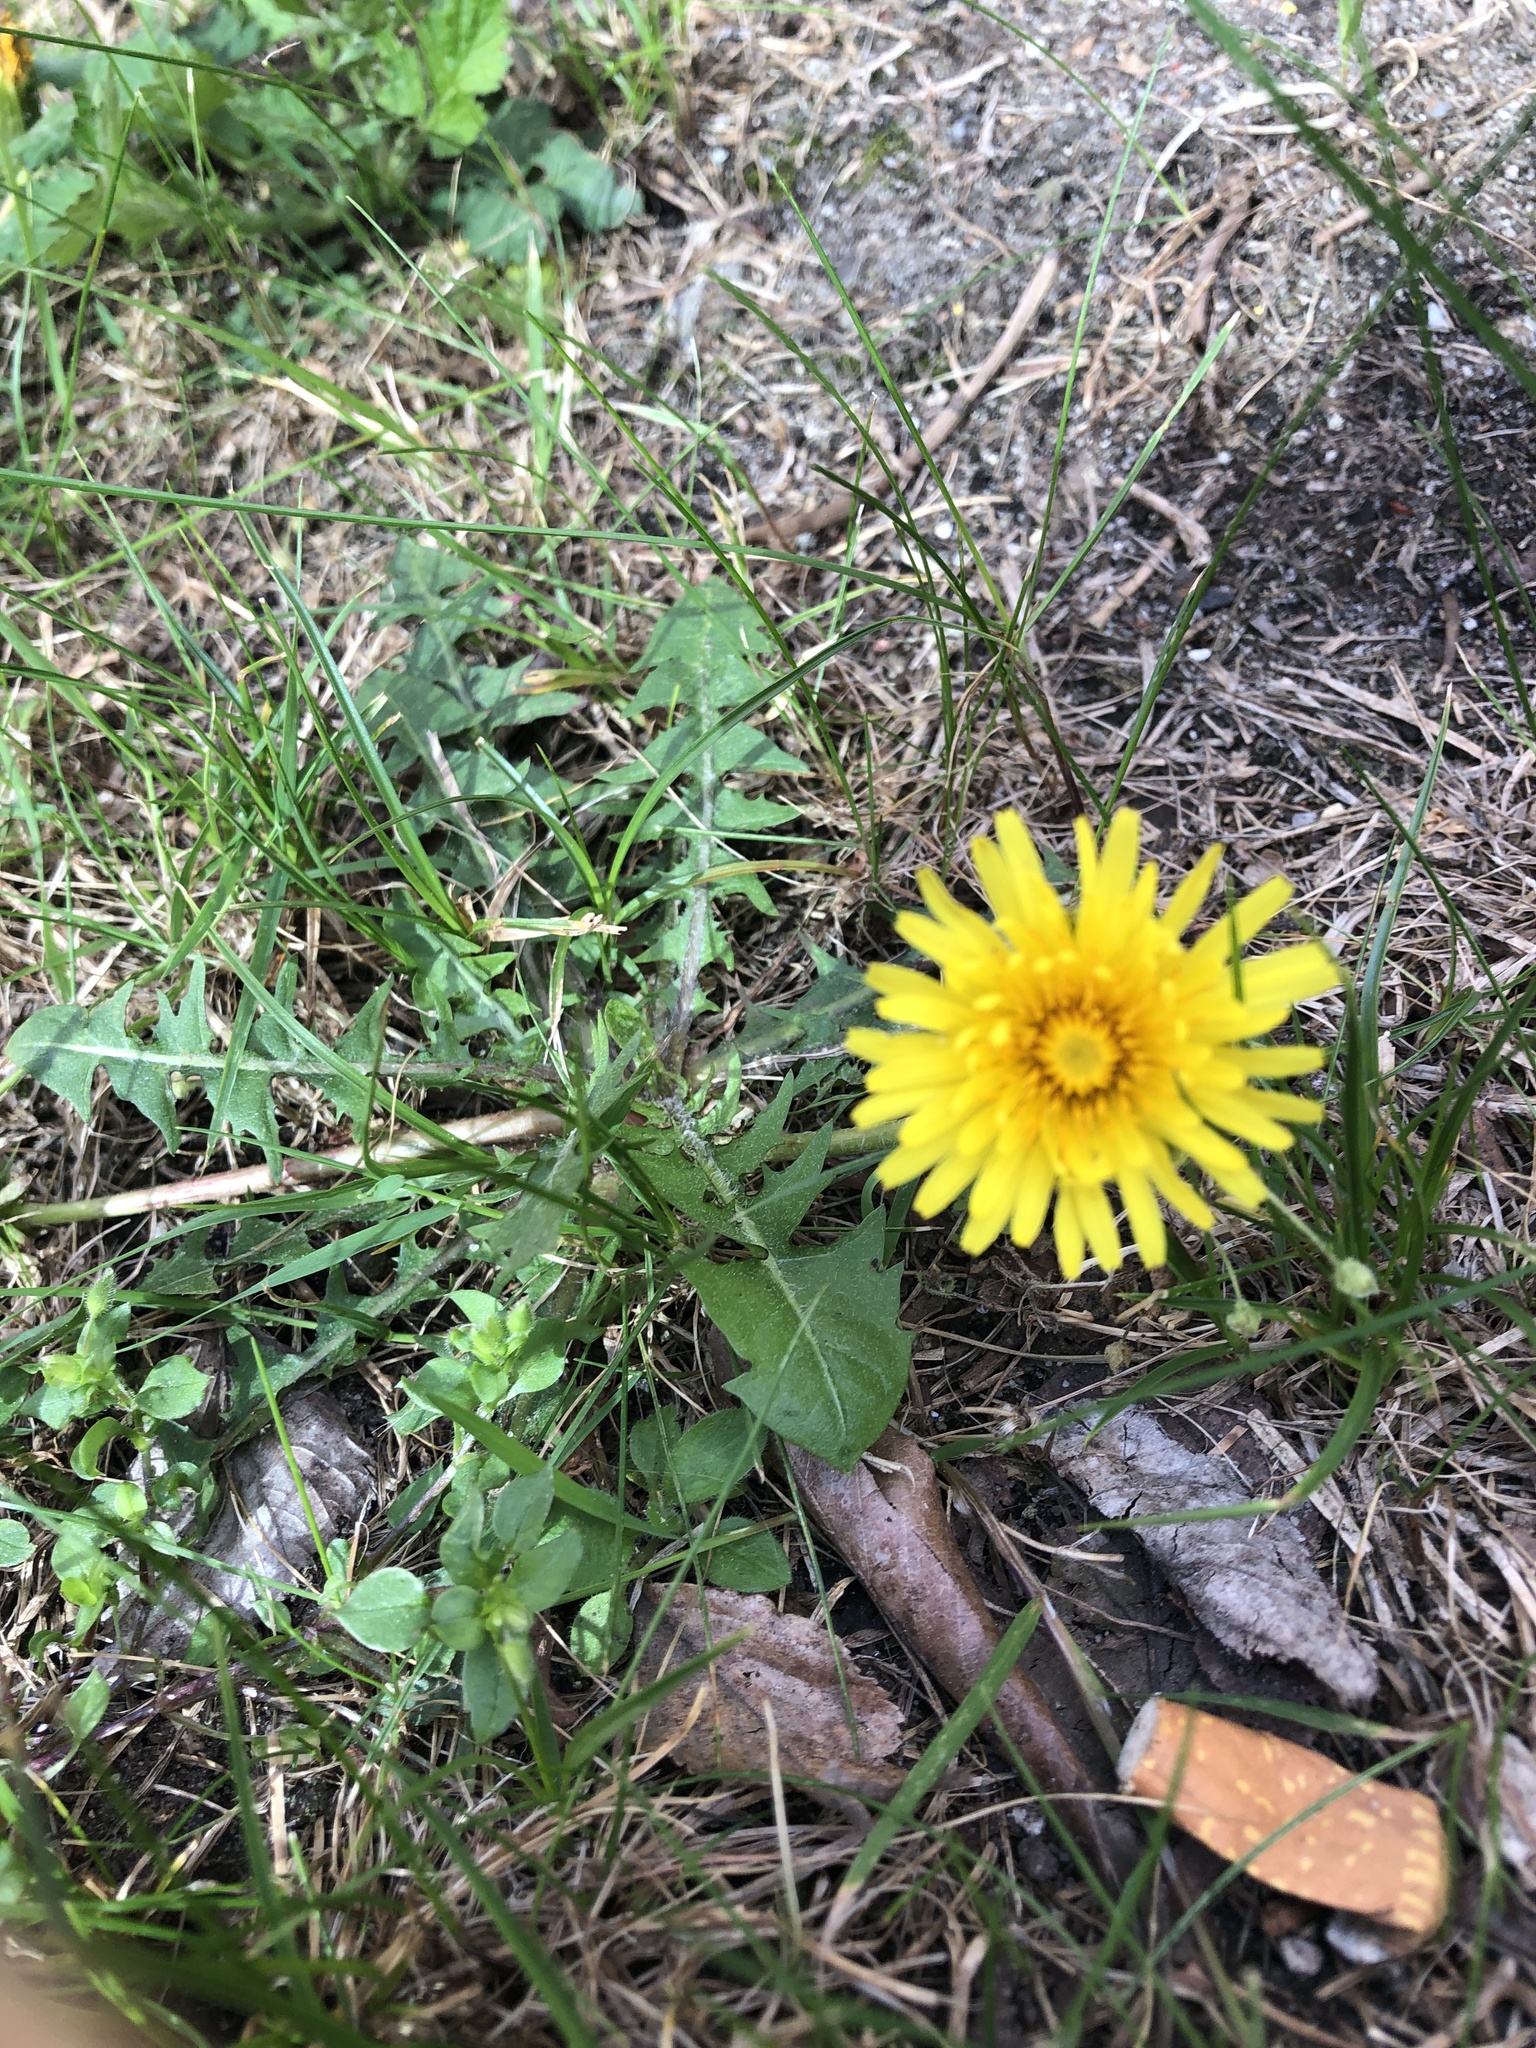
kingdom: Plantae
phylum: Tracheophyta
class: Magnoliopsida
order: Asterales
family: Asteraceae
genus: Taraxacum
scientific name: Taraxacum officinale
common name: Common dandelion
